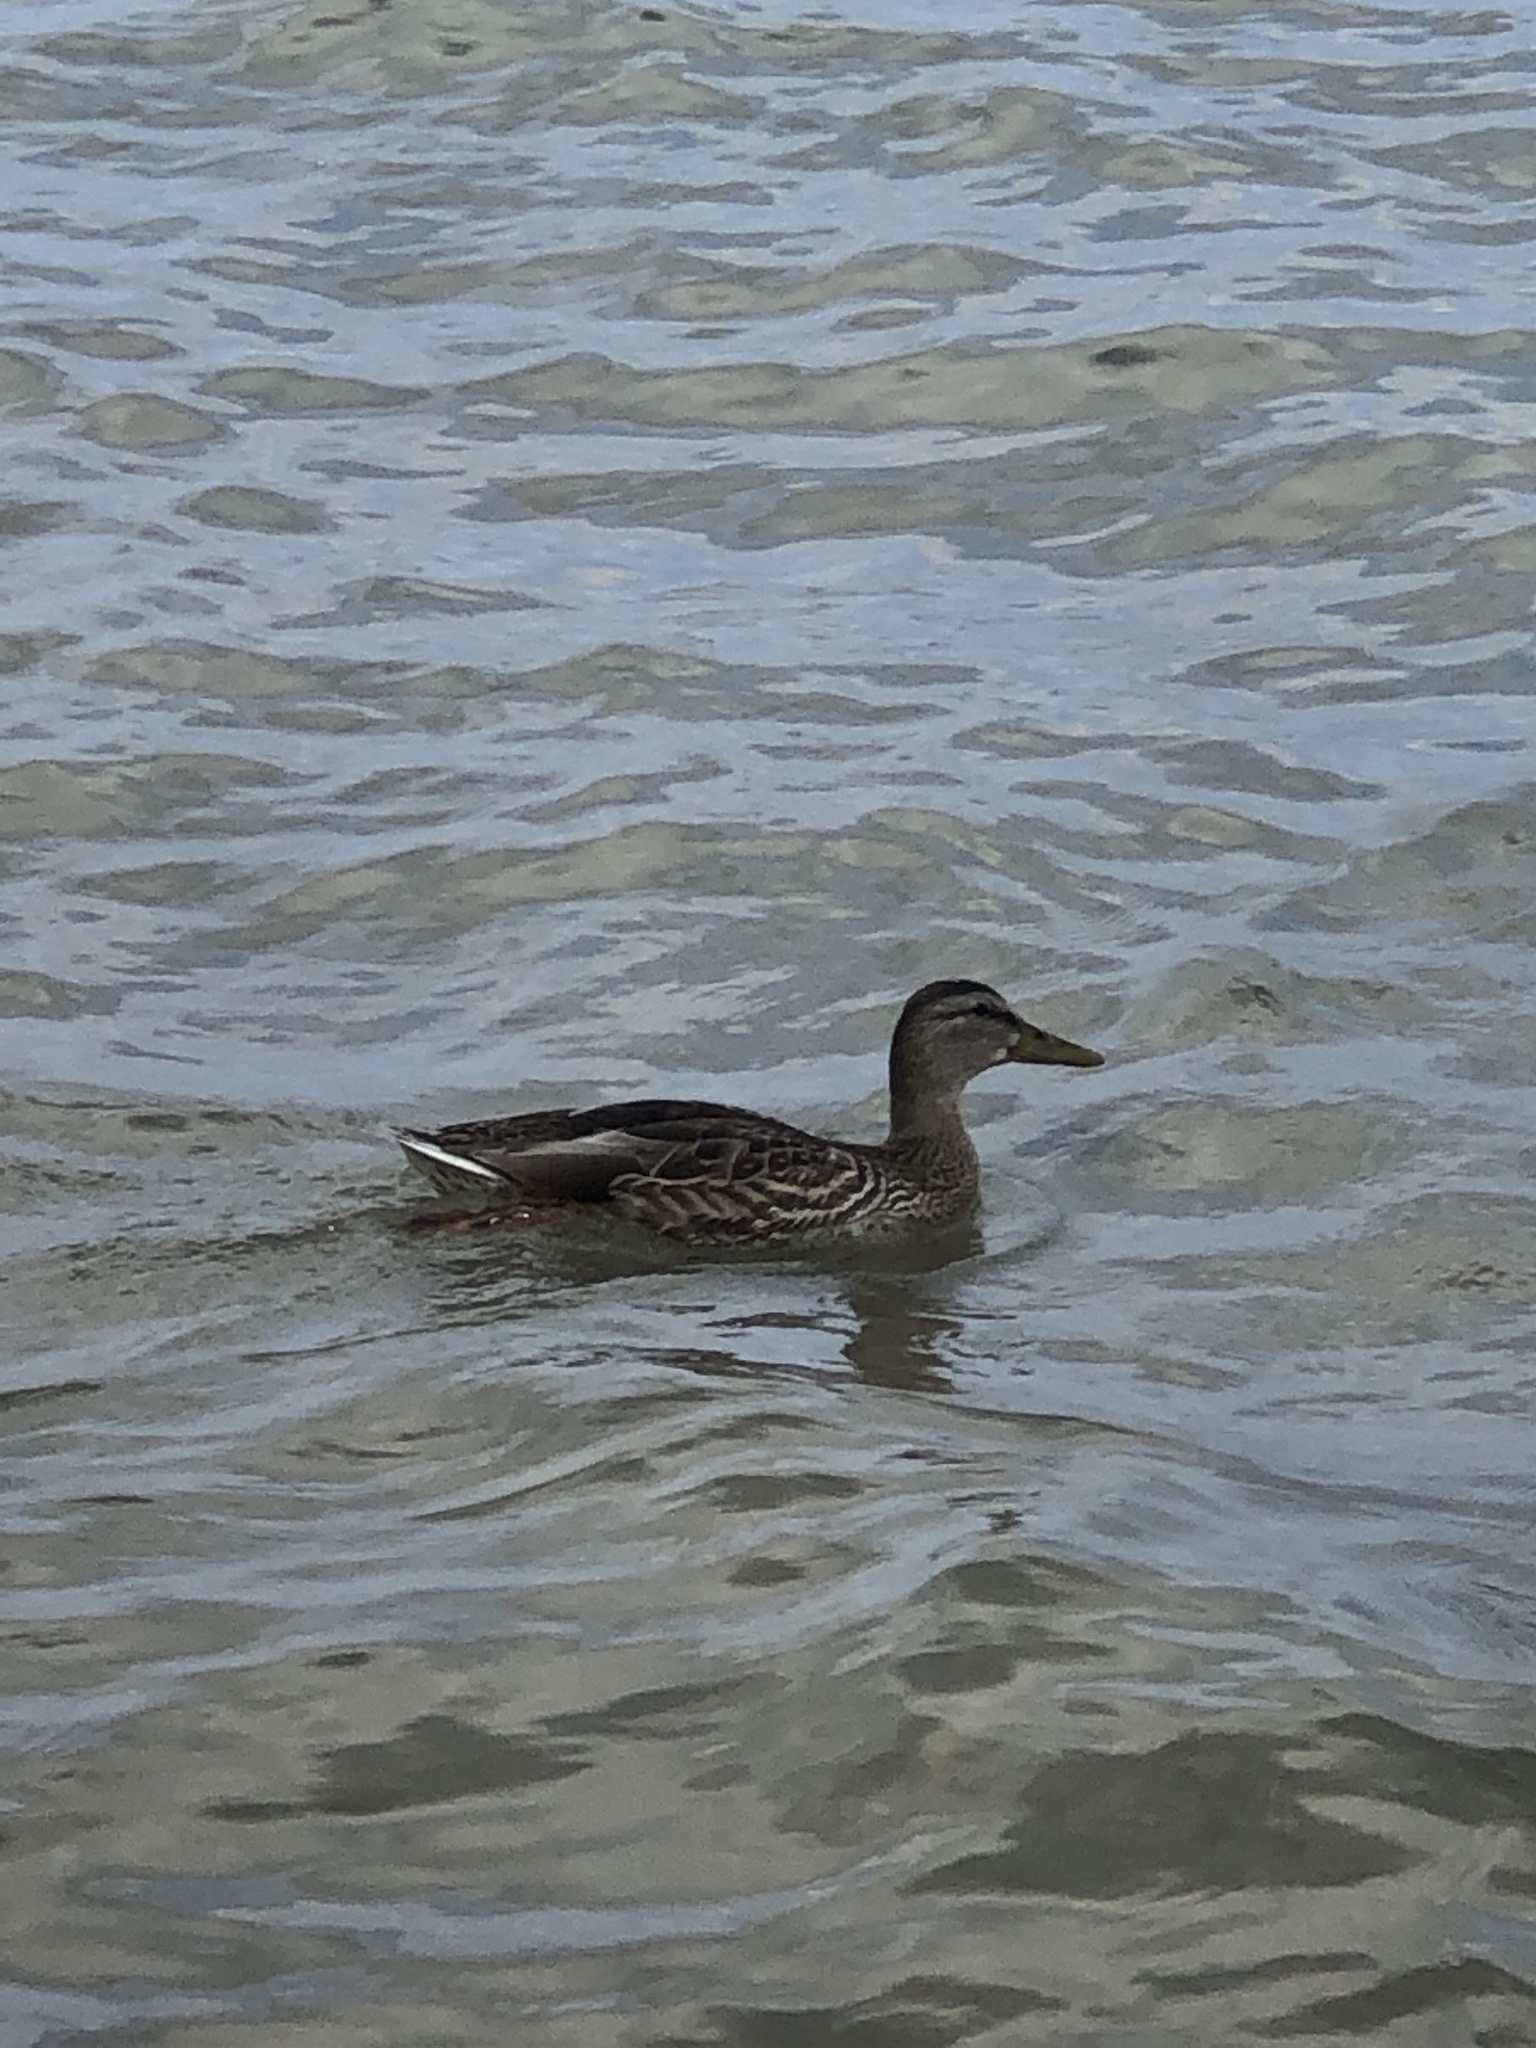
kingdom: Animalia
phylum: Chordata
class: Aves
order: Anseriformes
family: Anatidae
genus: Anas
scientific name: Anas platyrhynchos
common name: Mallard
